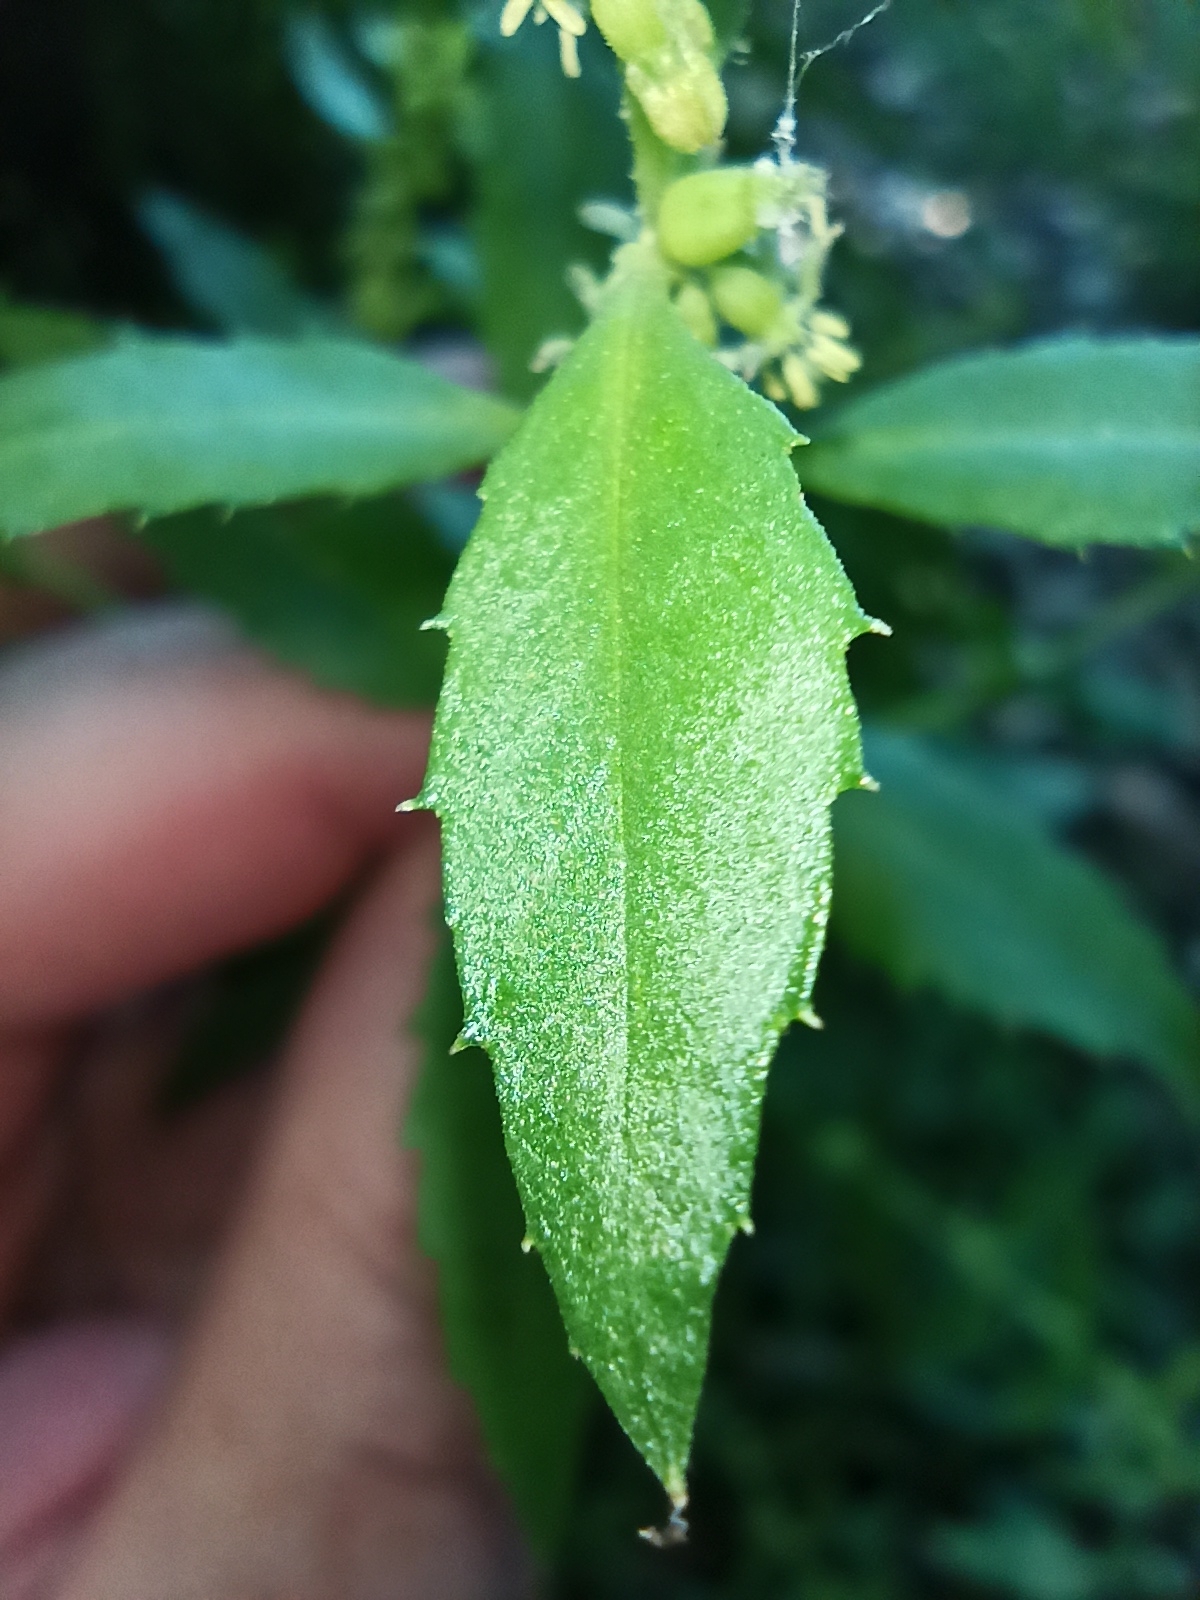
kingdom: Plantae
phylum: Tracheophyta
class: Magnoliopsida
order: Saxifragales
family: Haloragaceae
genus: Haloragis
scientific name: Haloragis erecta
